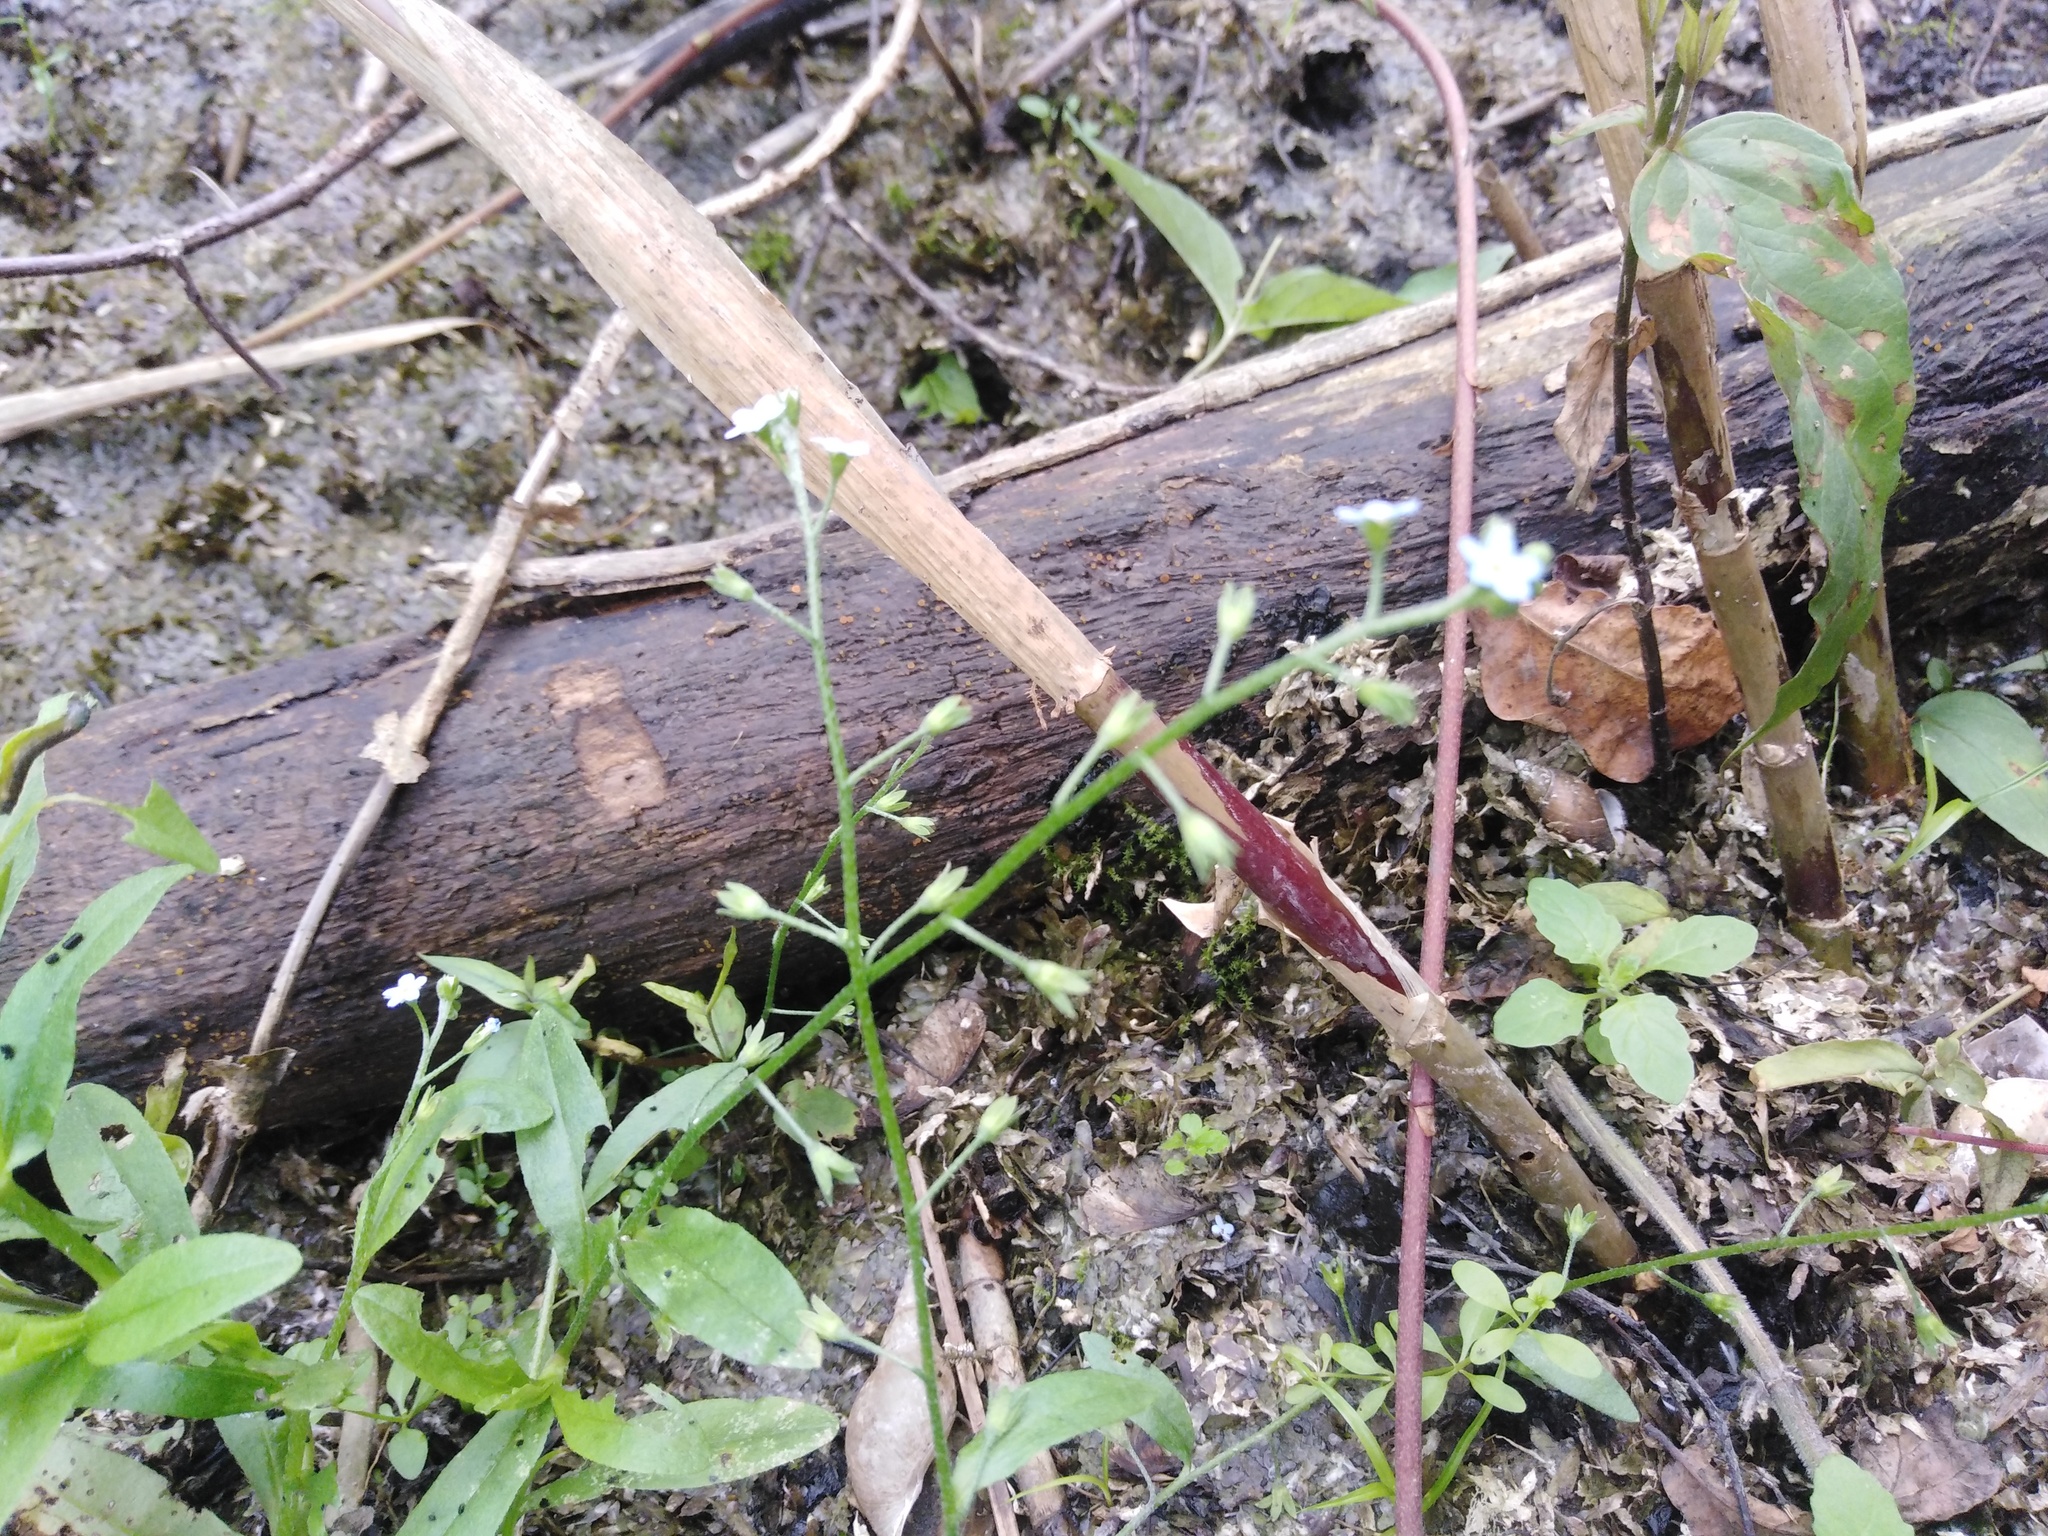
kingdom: Plantae
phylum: Tracheophyta
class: Magnoliopsida
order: Boraginales
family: Boraginaceae
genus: Myosotis
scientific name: Myosotis scorpioides
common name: Water forget-me-not
